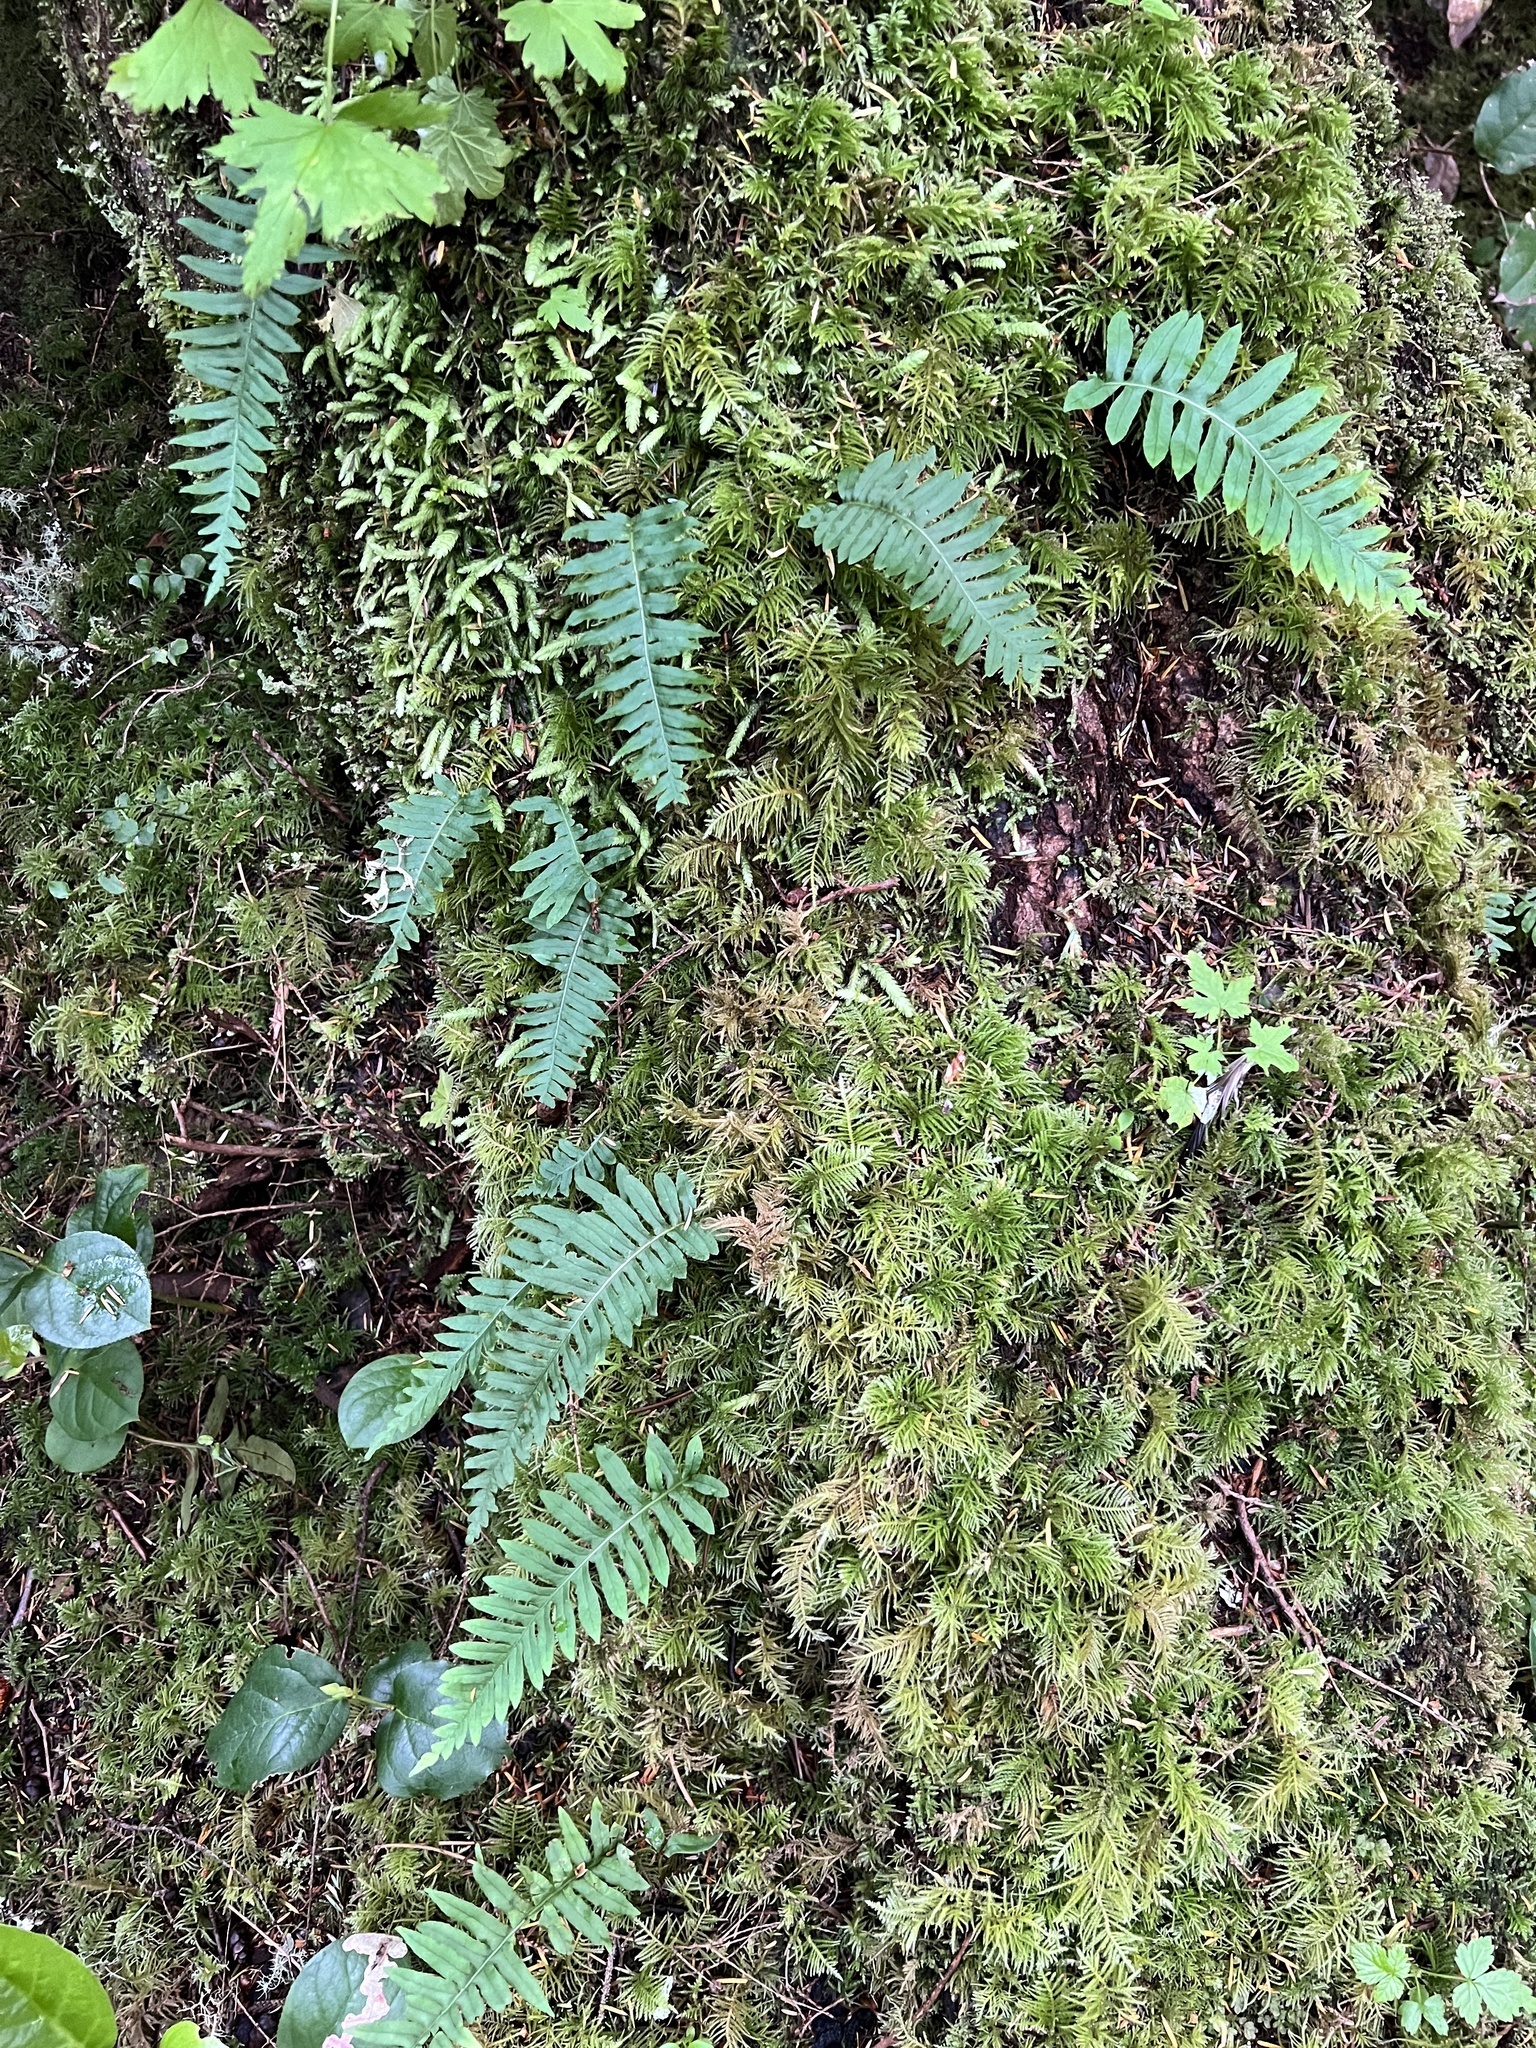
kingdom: Plantae
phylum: Tracheophyta
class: Polypodiopsida
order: Polypodiales
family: Polypodiaceae
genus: Polypodium
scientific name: Polypodium glycyrrhiza
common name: Licorice fern
